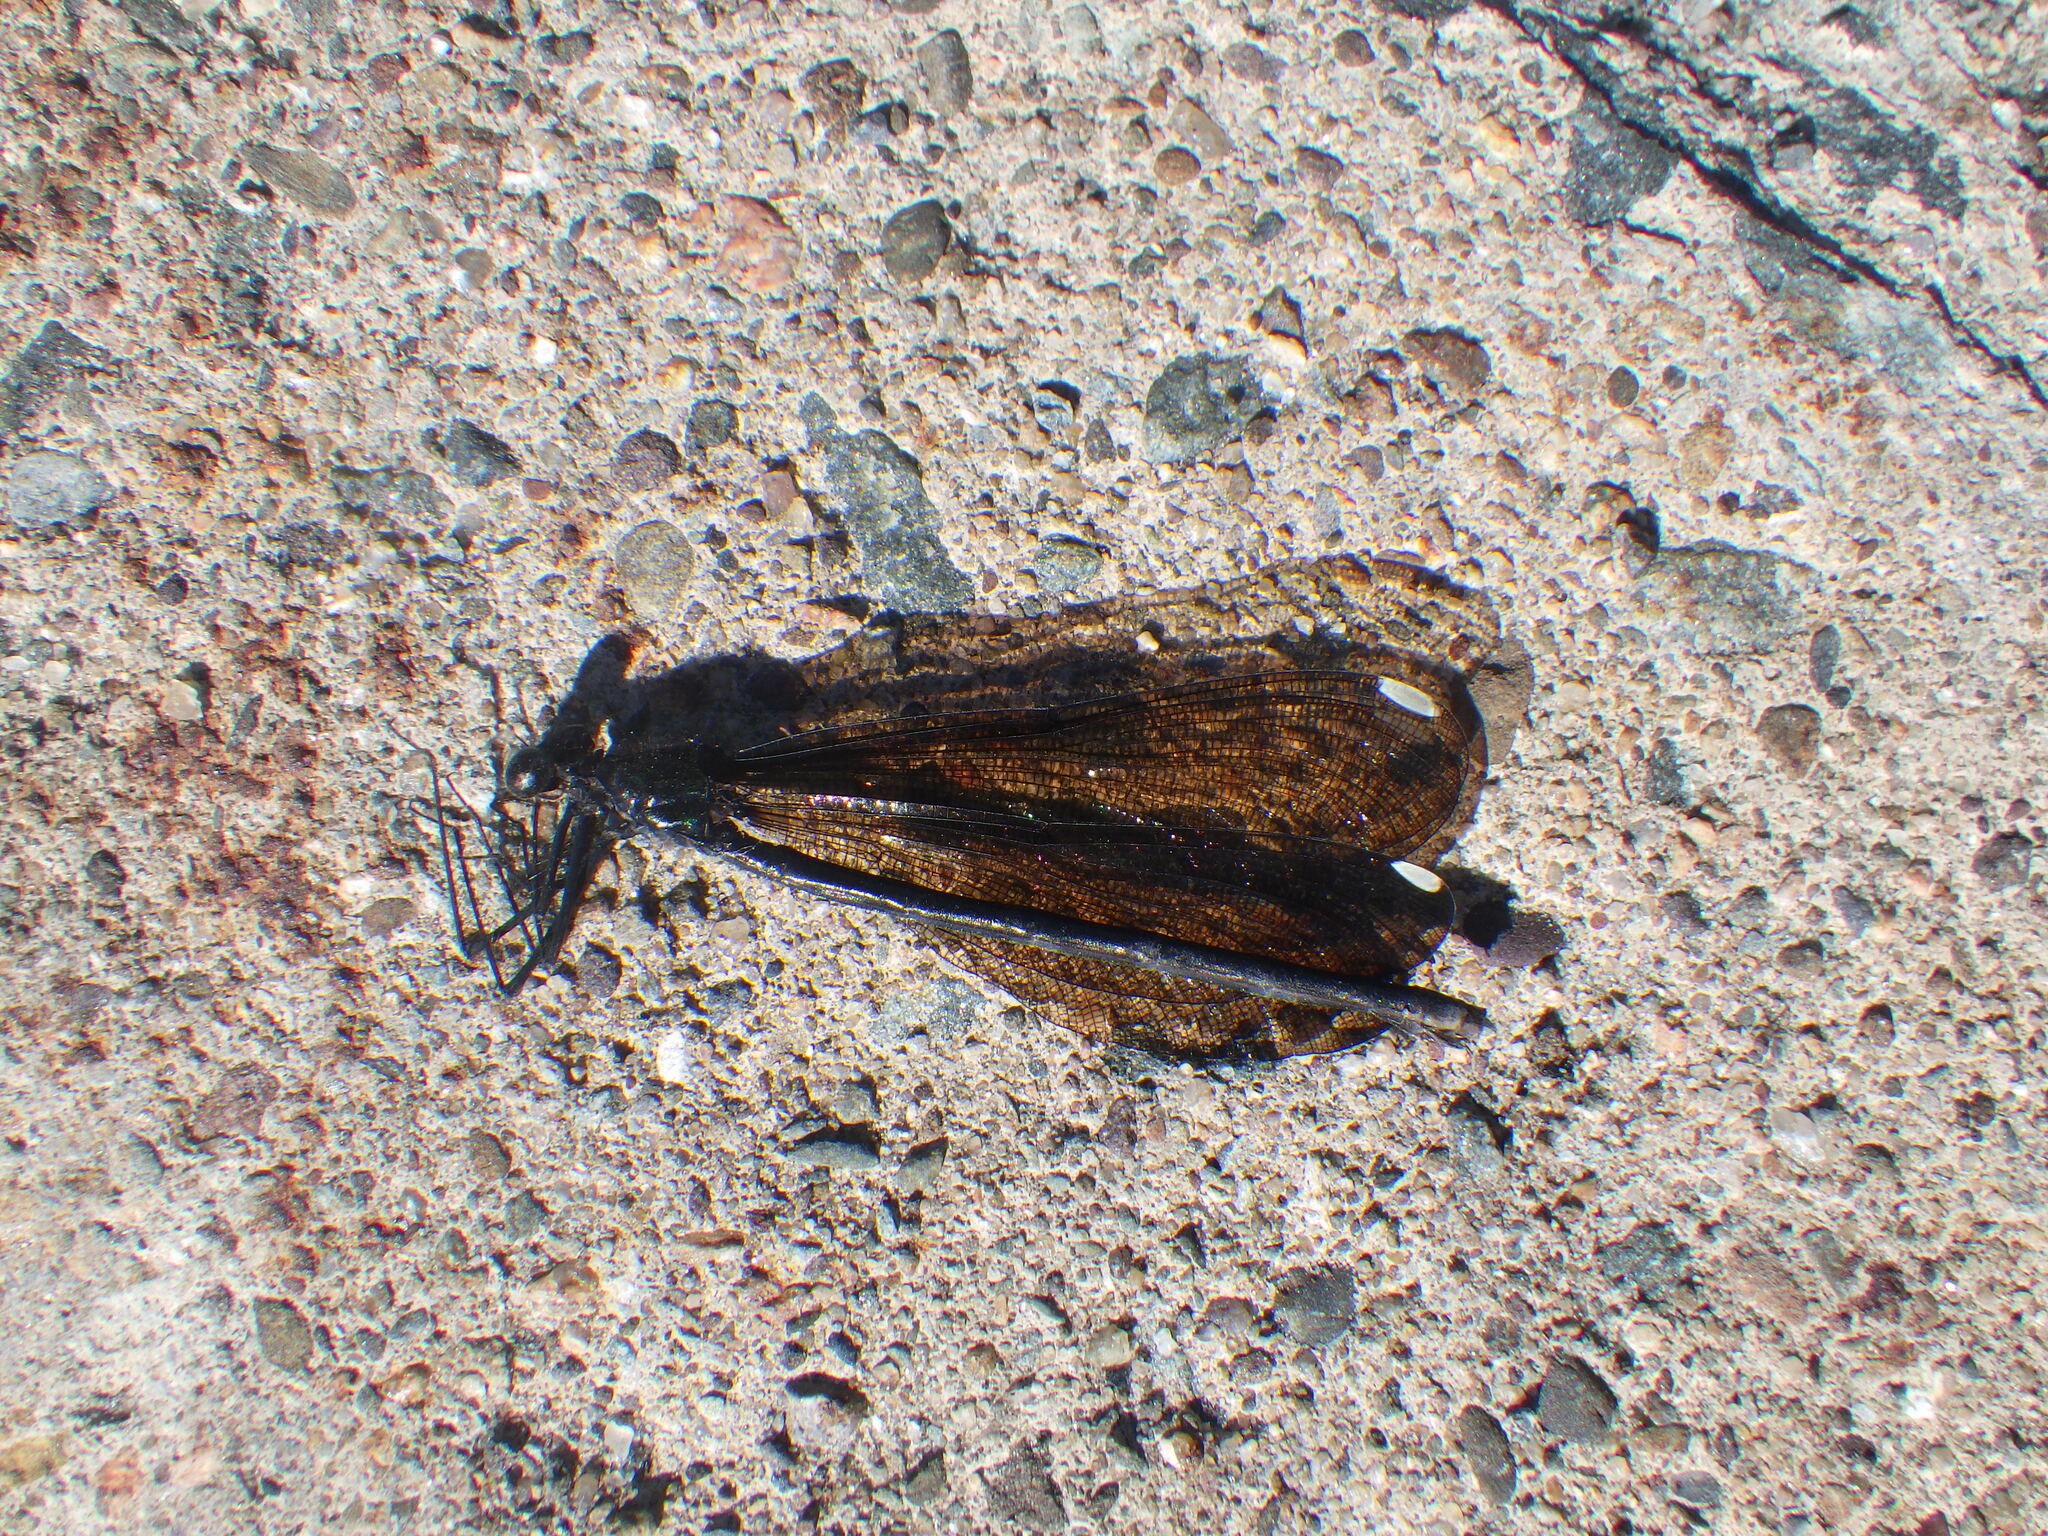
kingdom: Animalia
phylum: Arthropoda
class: Insecta
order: Odonata
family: Calopterygidae
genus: Calopteryx
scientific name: Calopteryx maculata
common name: Ebony jewelwing
